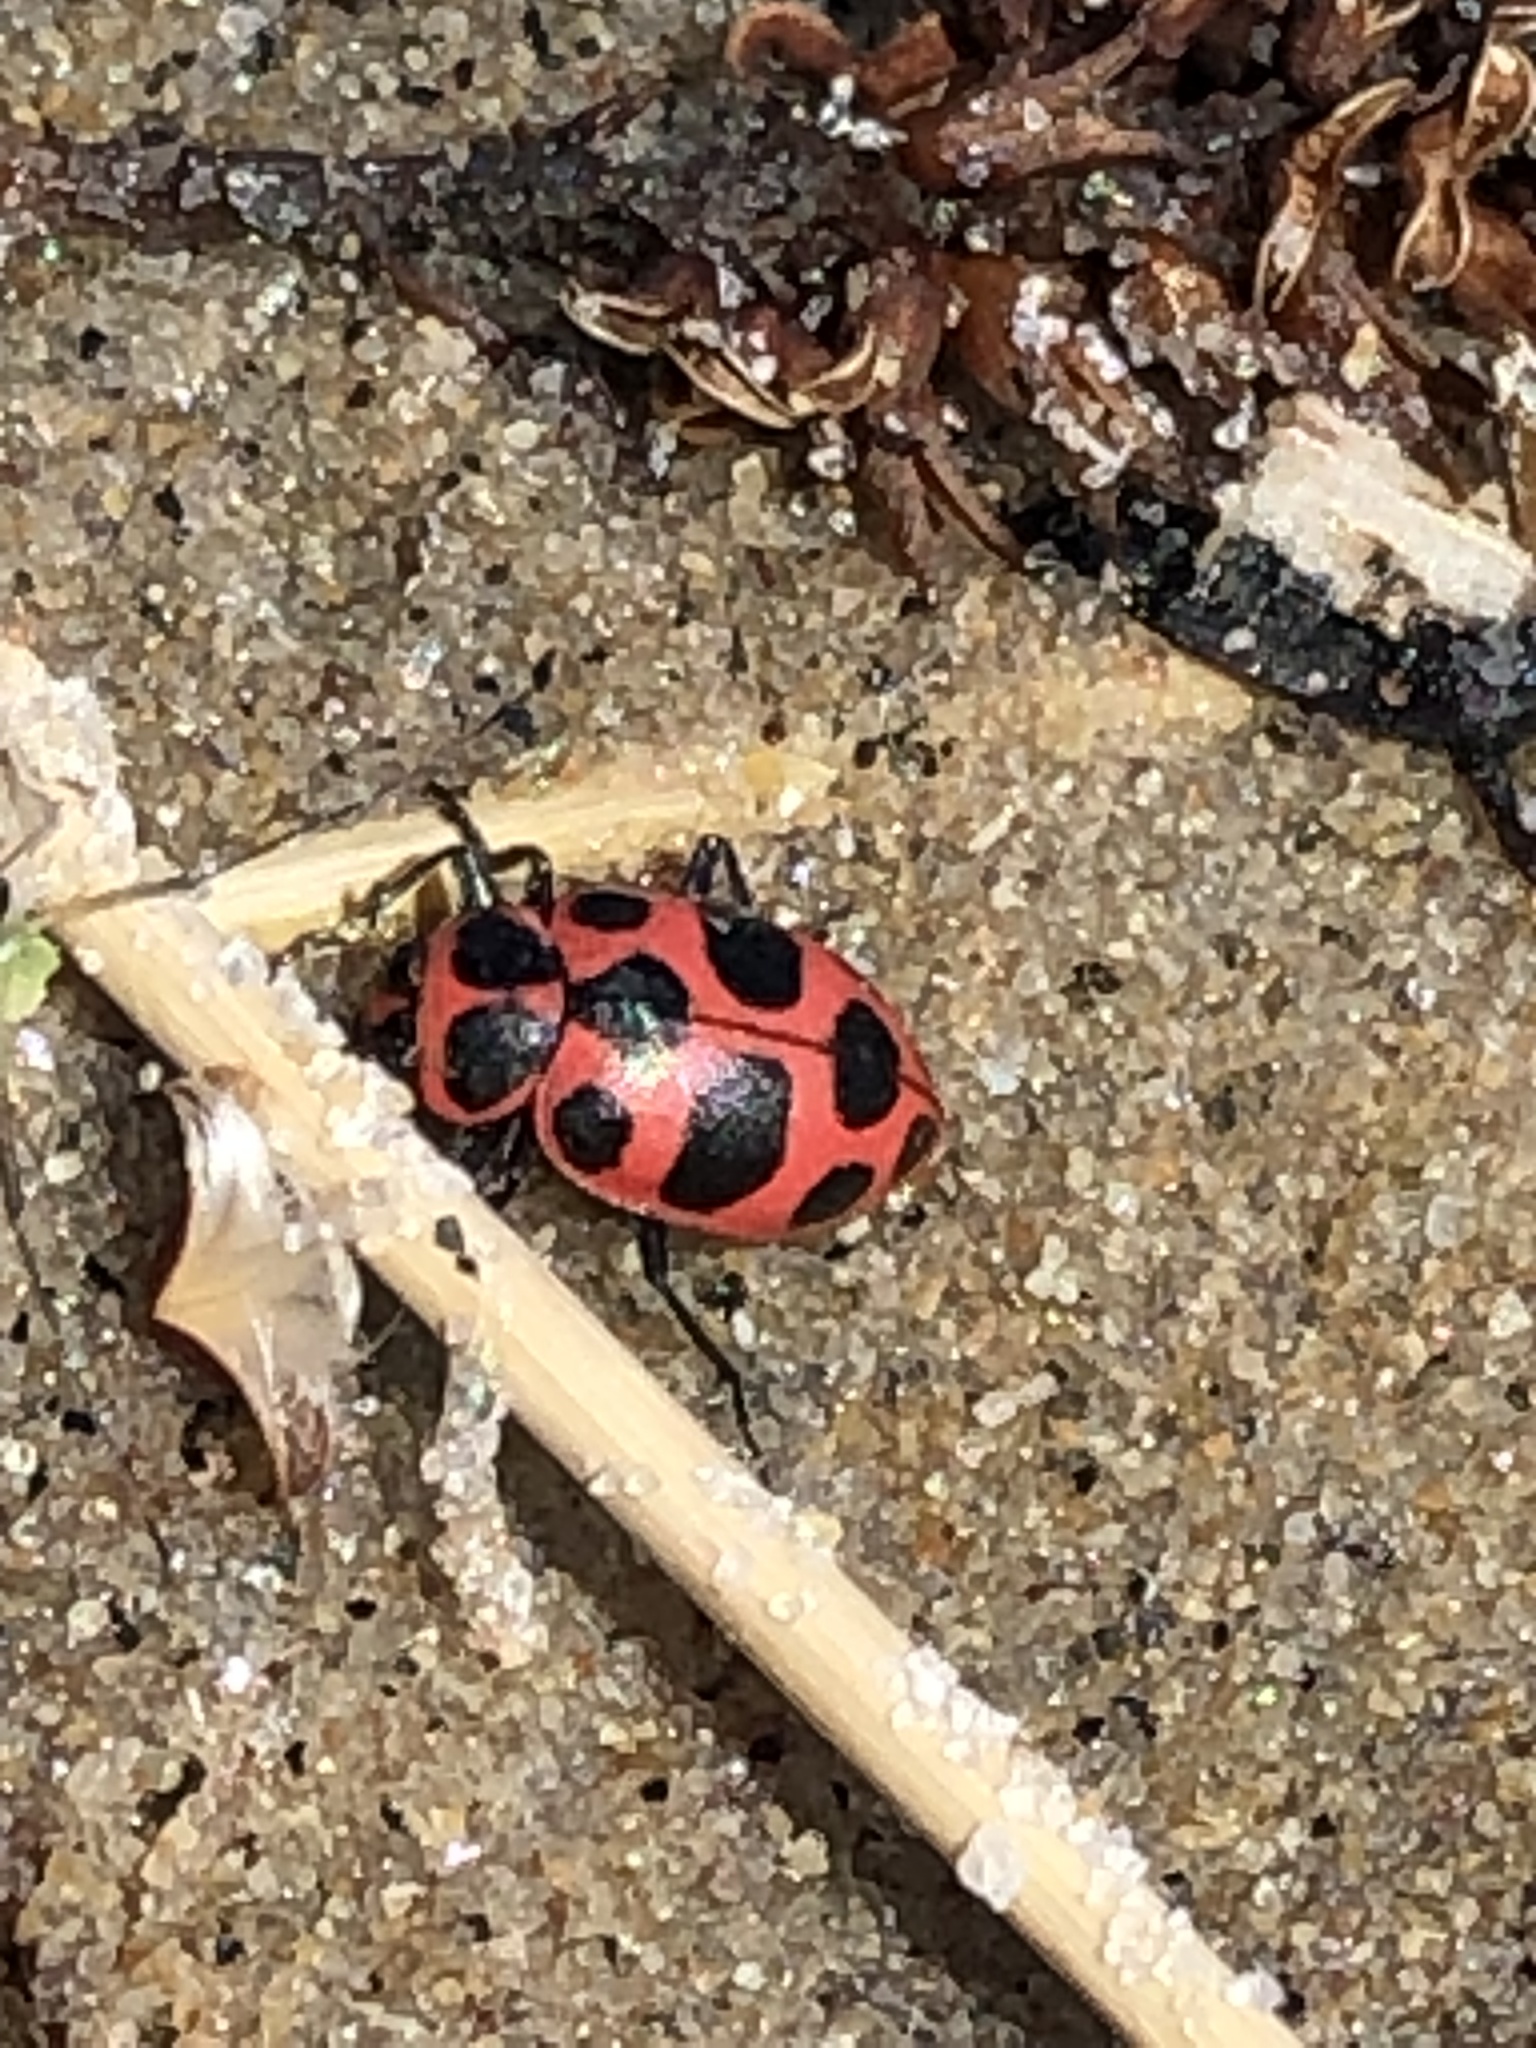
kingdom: Animalia
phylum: Arthropoda
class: Insecta
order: Coleoptera
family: Coccinellidae
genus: Coleomegilla
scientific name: Coleomegilla maculata
